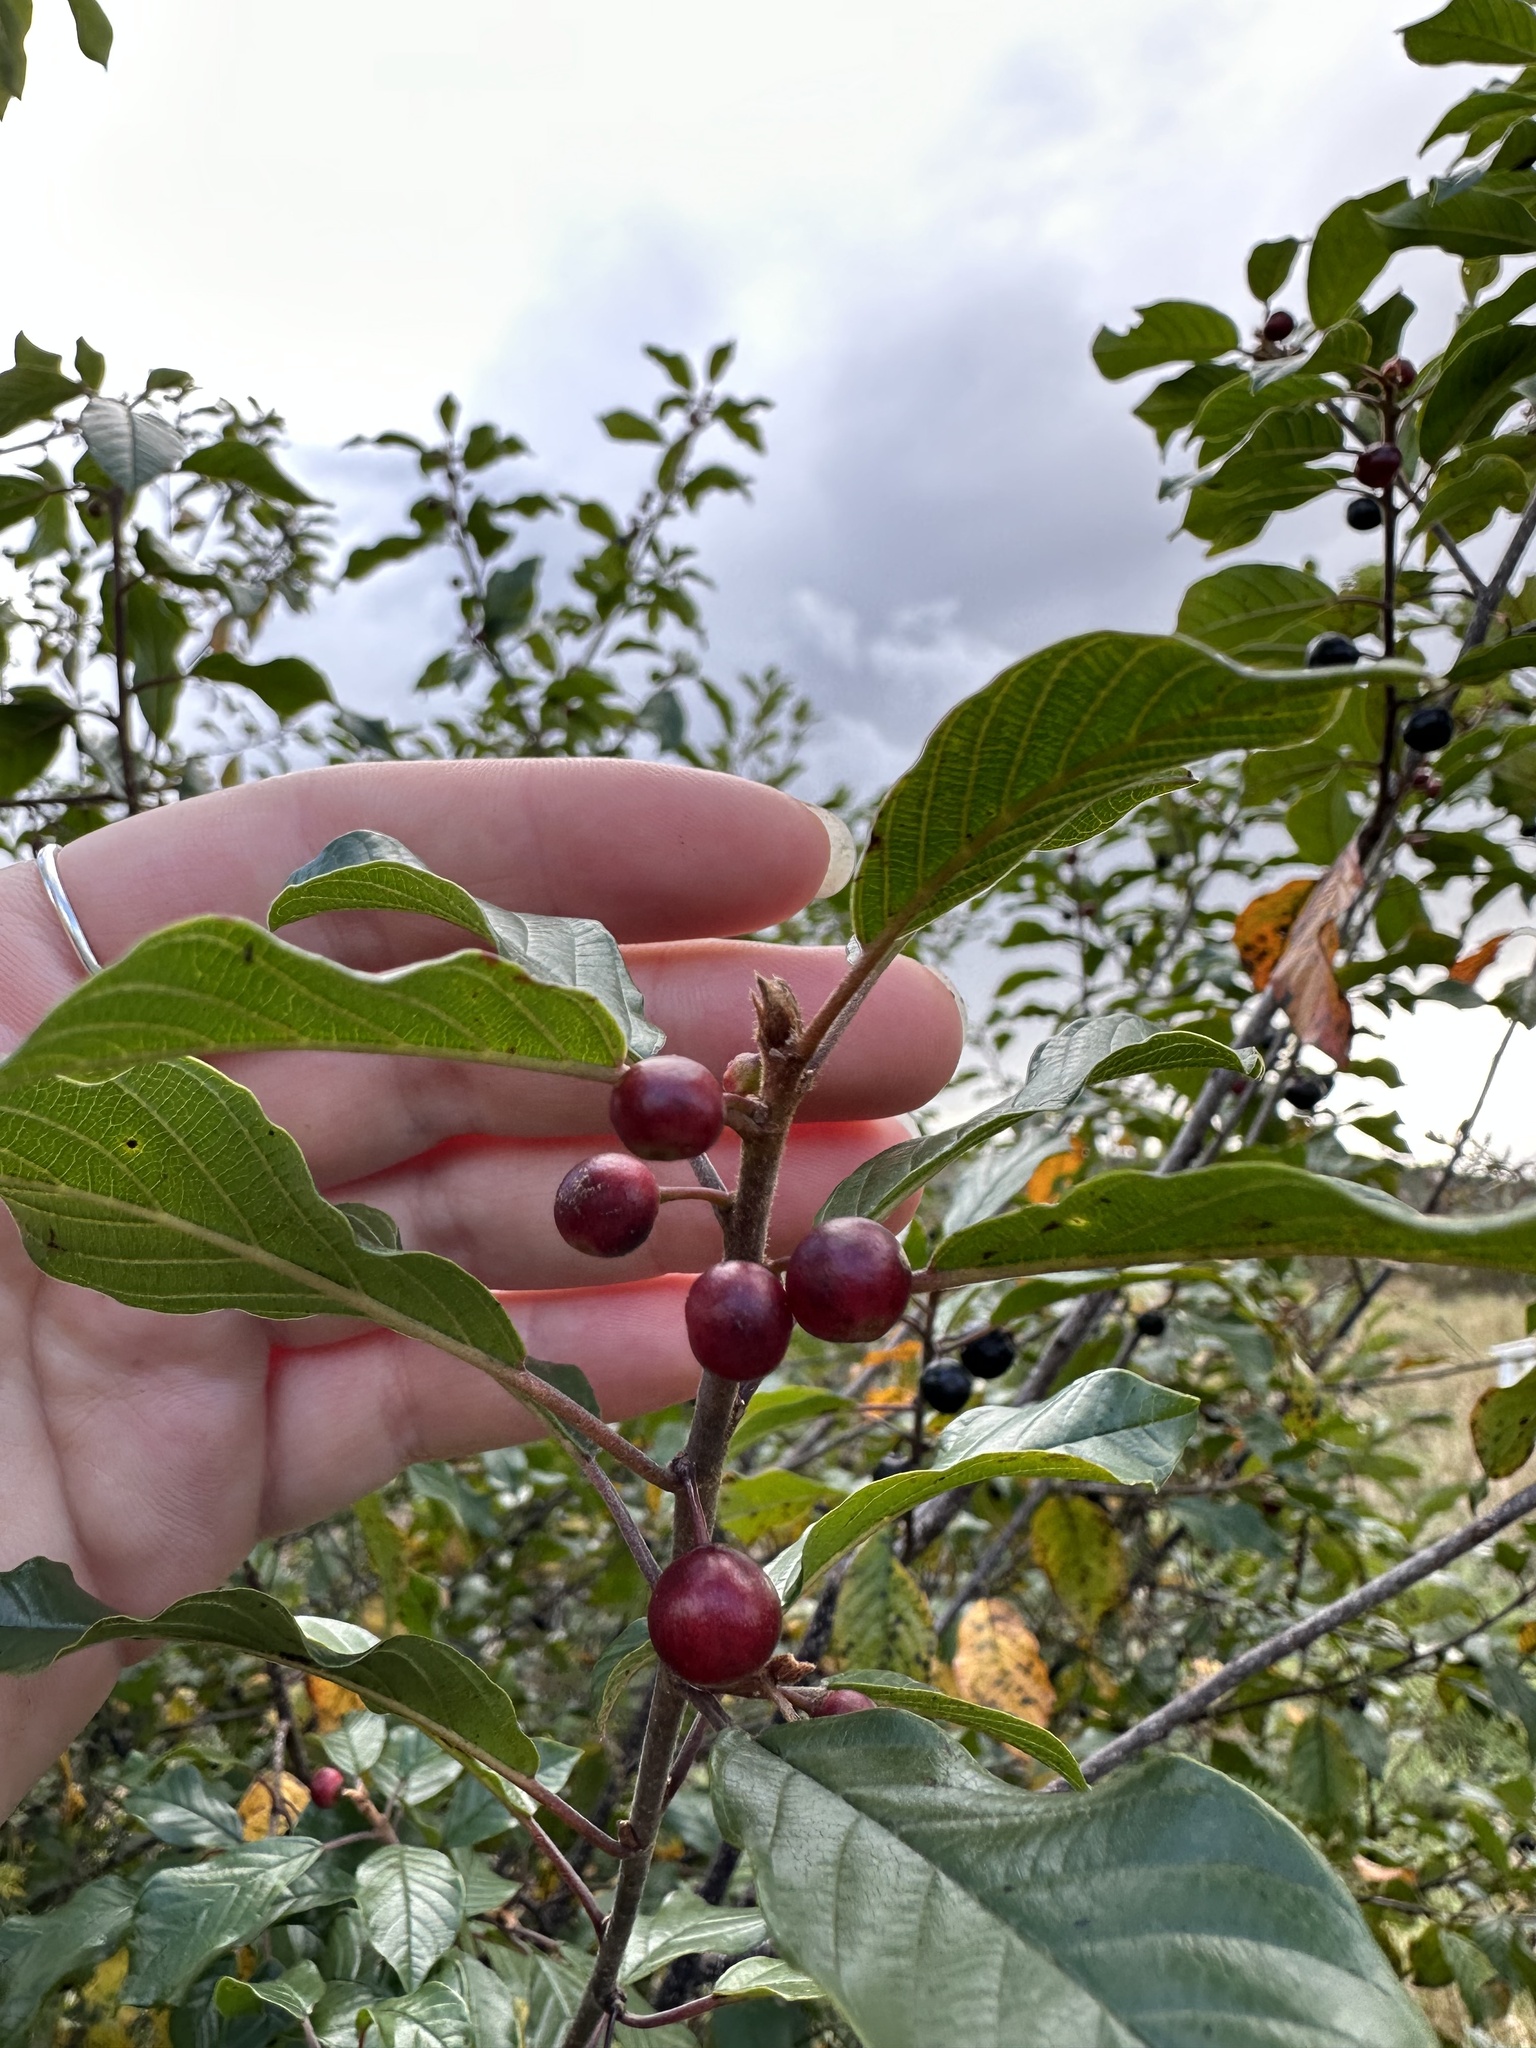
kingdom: Plantae
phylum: Tracheophyta
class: Magnoliopsida
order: Rosales
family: Rhamnaceae
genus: Frangula
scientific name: Frangula alnus
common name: Alder buckthorn
